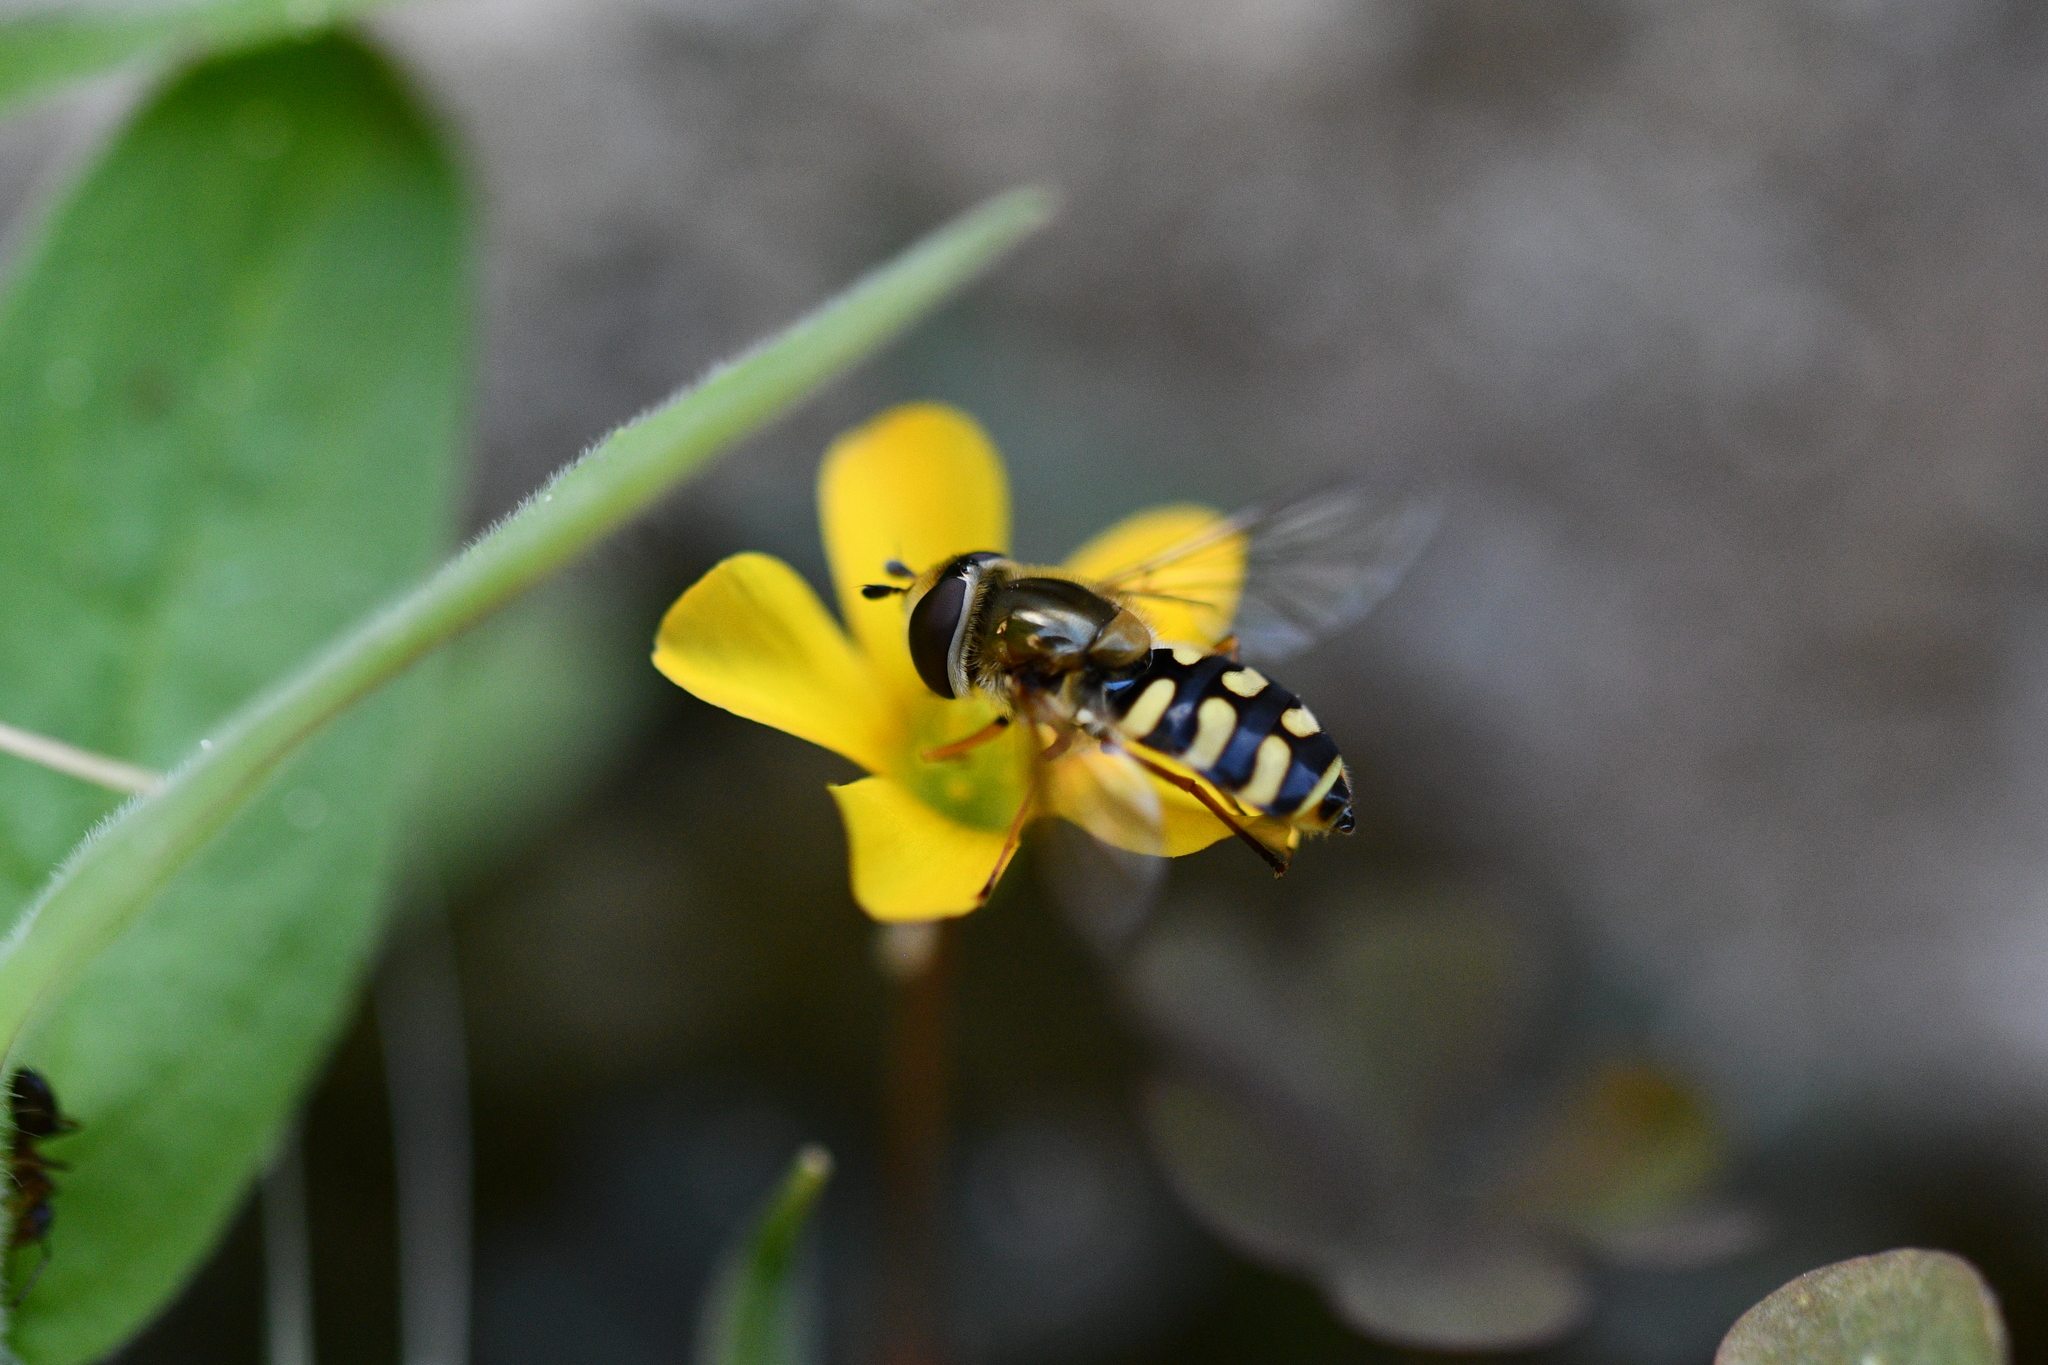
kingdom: Animalia
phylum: Arthropoda
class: Insecta
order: Diptera
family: Syrphidae
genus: Eupeodes
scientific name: Eupeodes corollae
